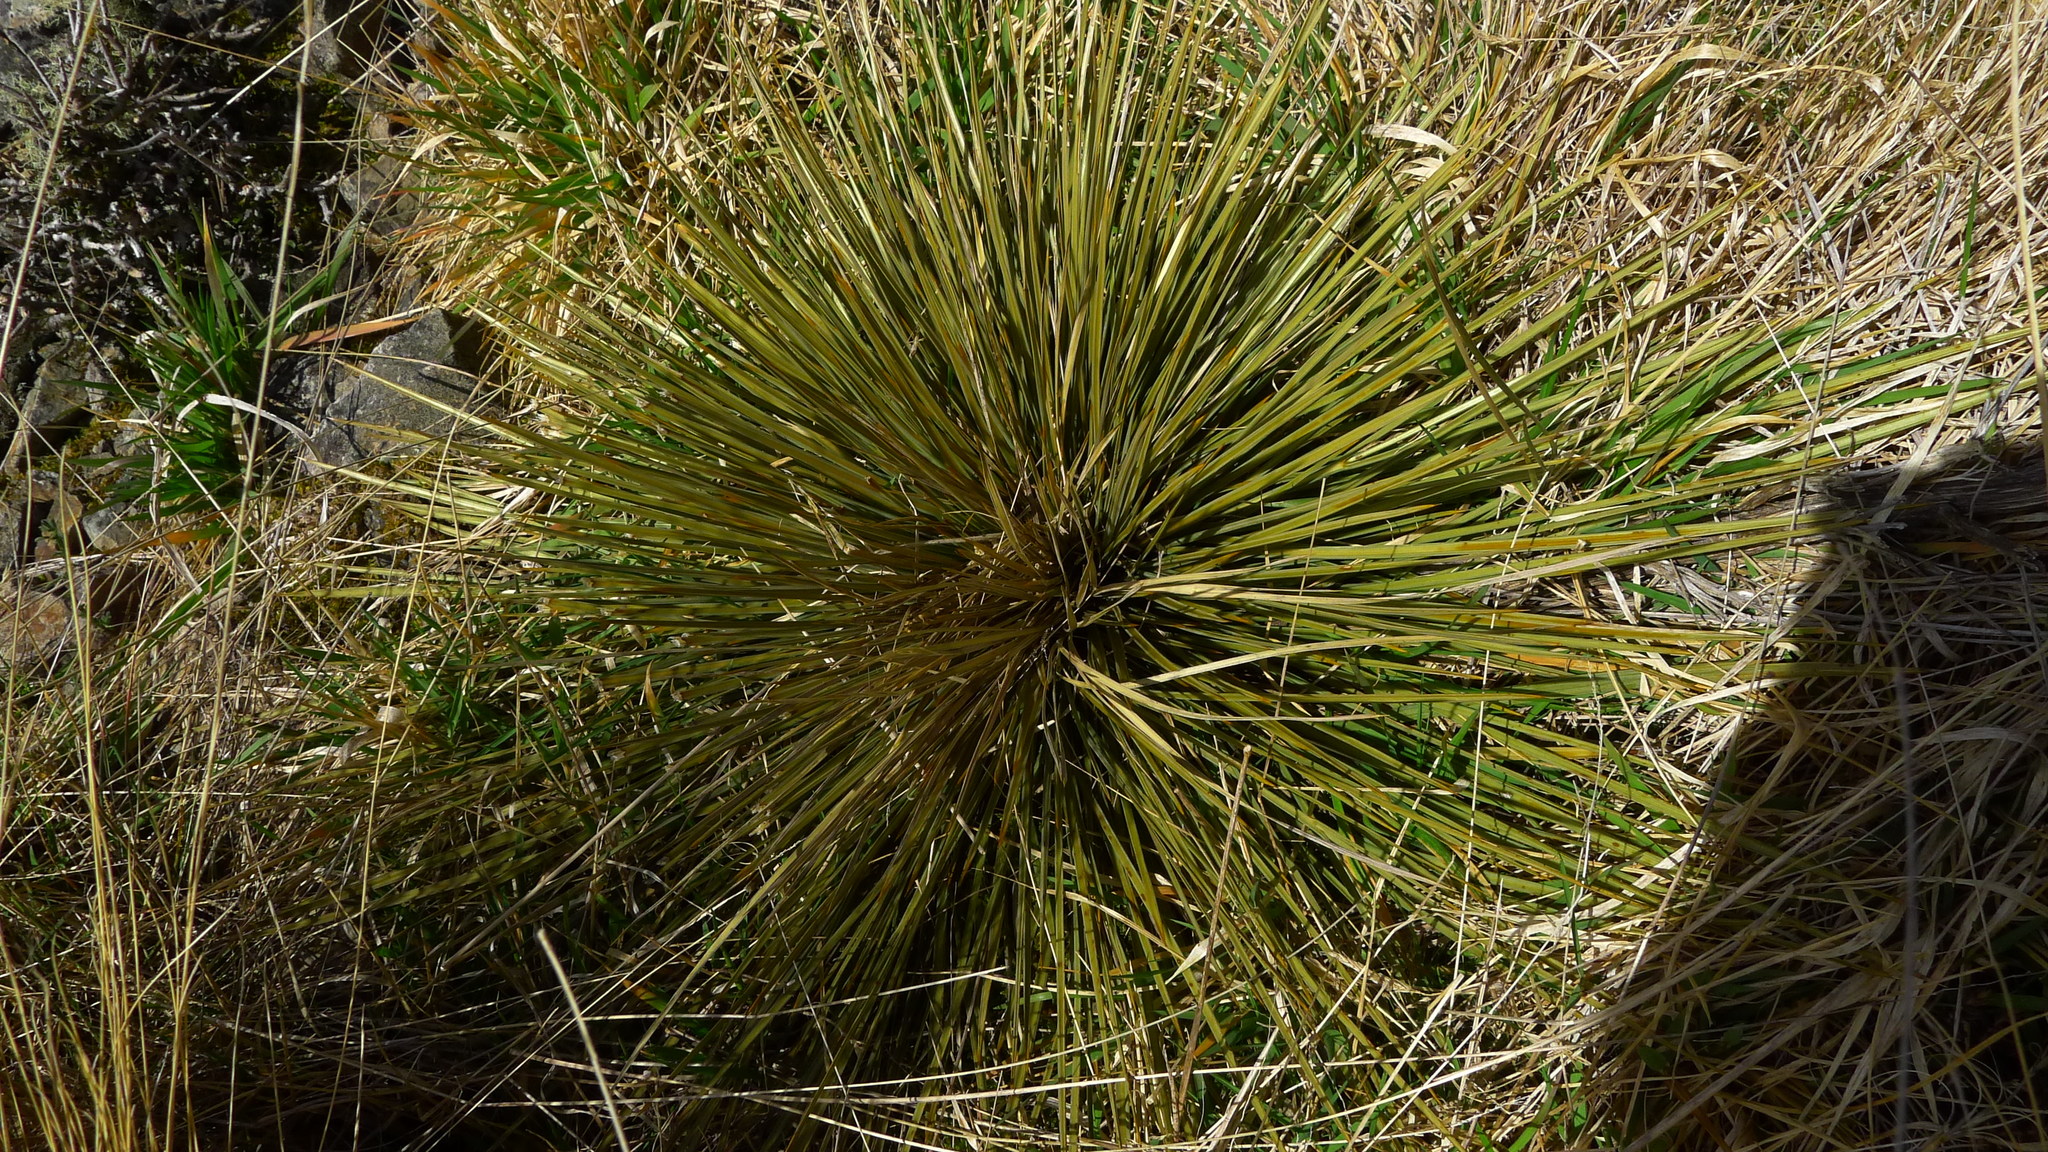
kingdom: Plantae
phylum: Tracheophyta
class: Magnoliopsida
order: Apiales
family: Apiaceae
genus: Aciphylla
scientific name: Aciphylla subflabellata
